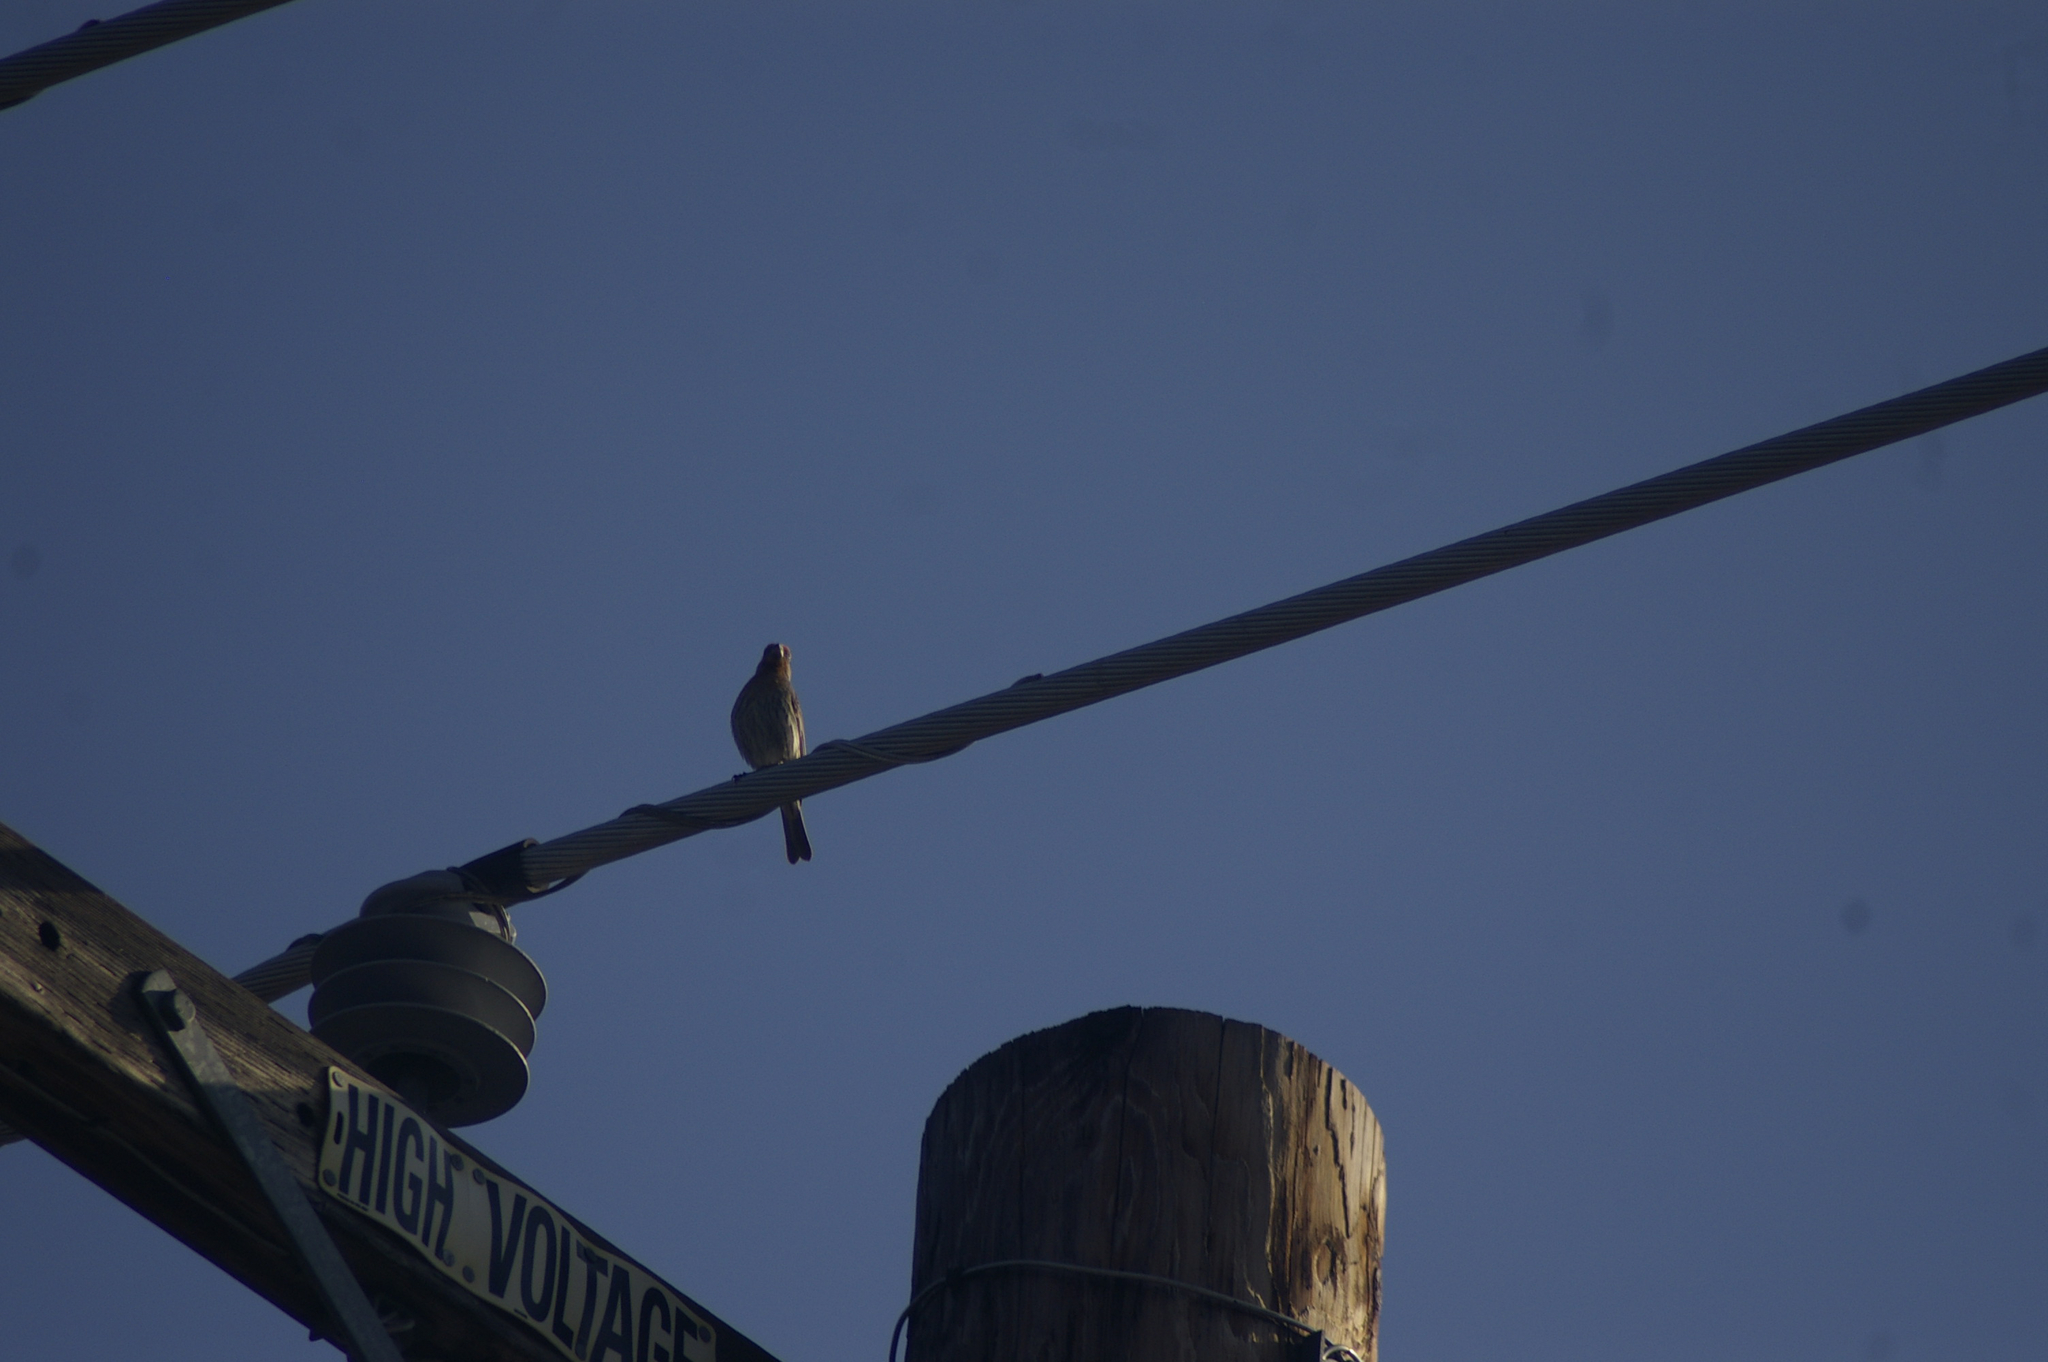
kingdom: Animalia
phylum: Chordata
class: Aves
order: Passeriformes
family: Fringillidae
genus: Haemorhous
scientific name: Haemorhous mexicanus
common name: House finch
